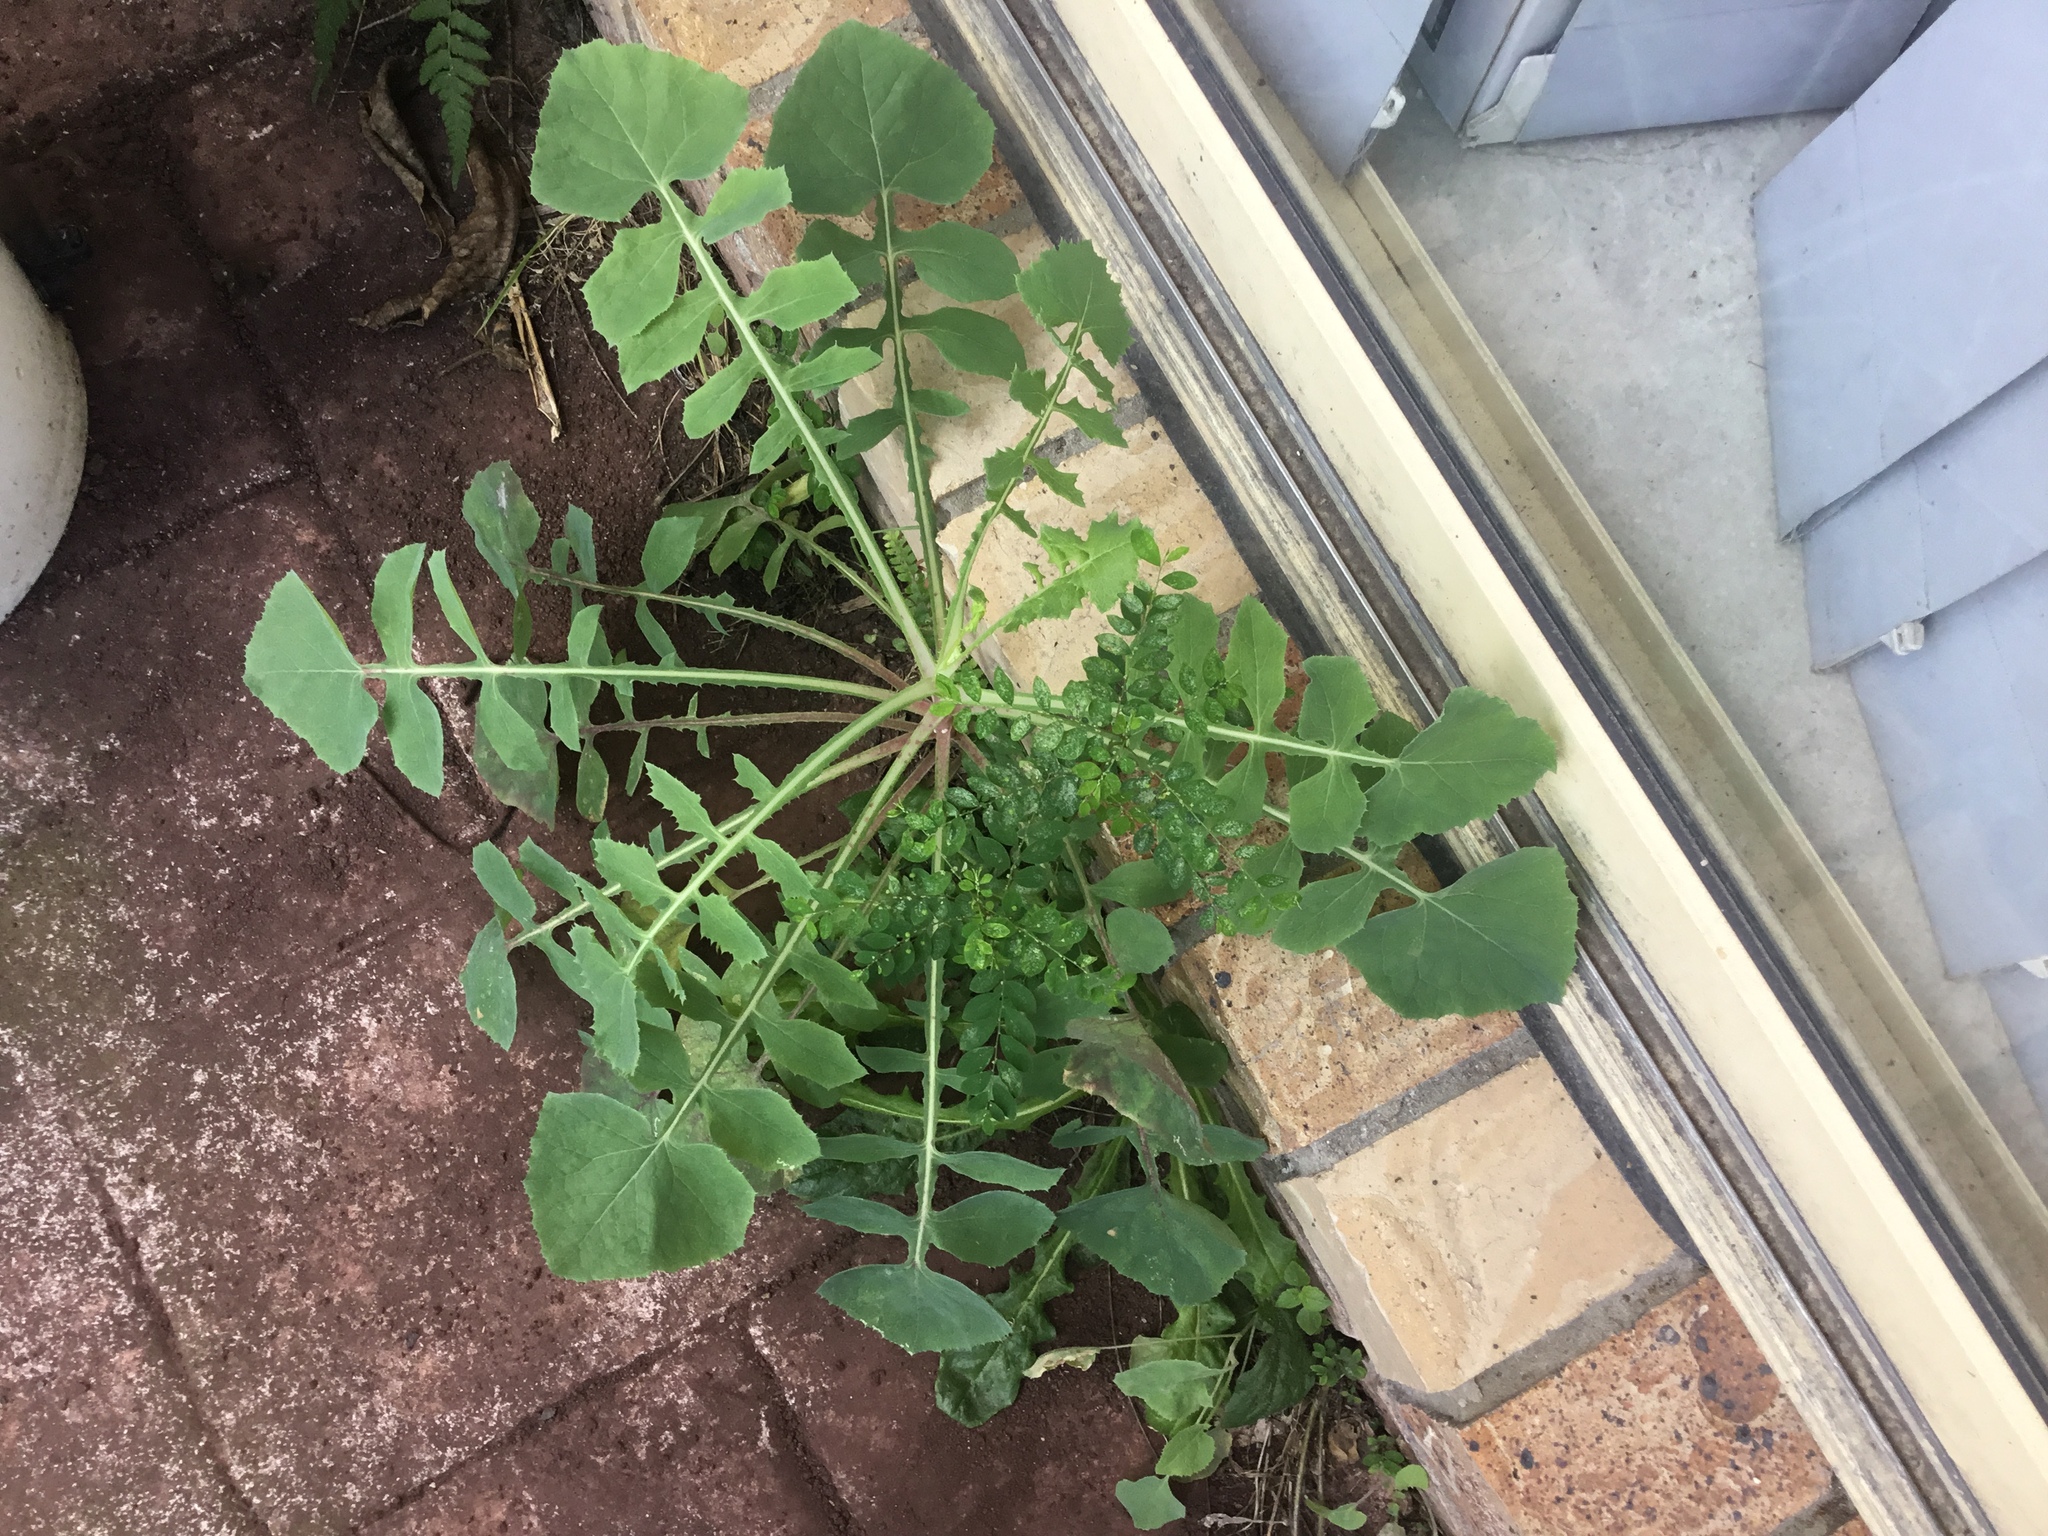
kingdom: Plantae
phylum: Tracheophyta
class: Magnoliopsida
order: Asterales
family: Asteraceae
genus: Sonchus
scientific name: Sonchus oleraceus
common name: Common sowthistle
